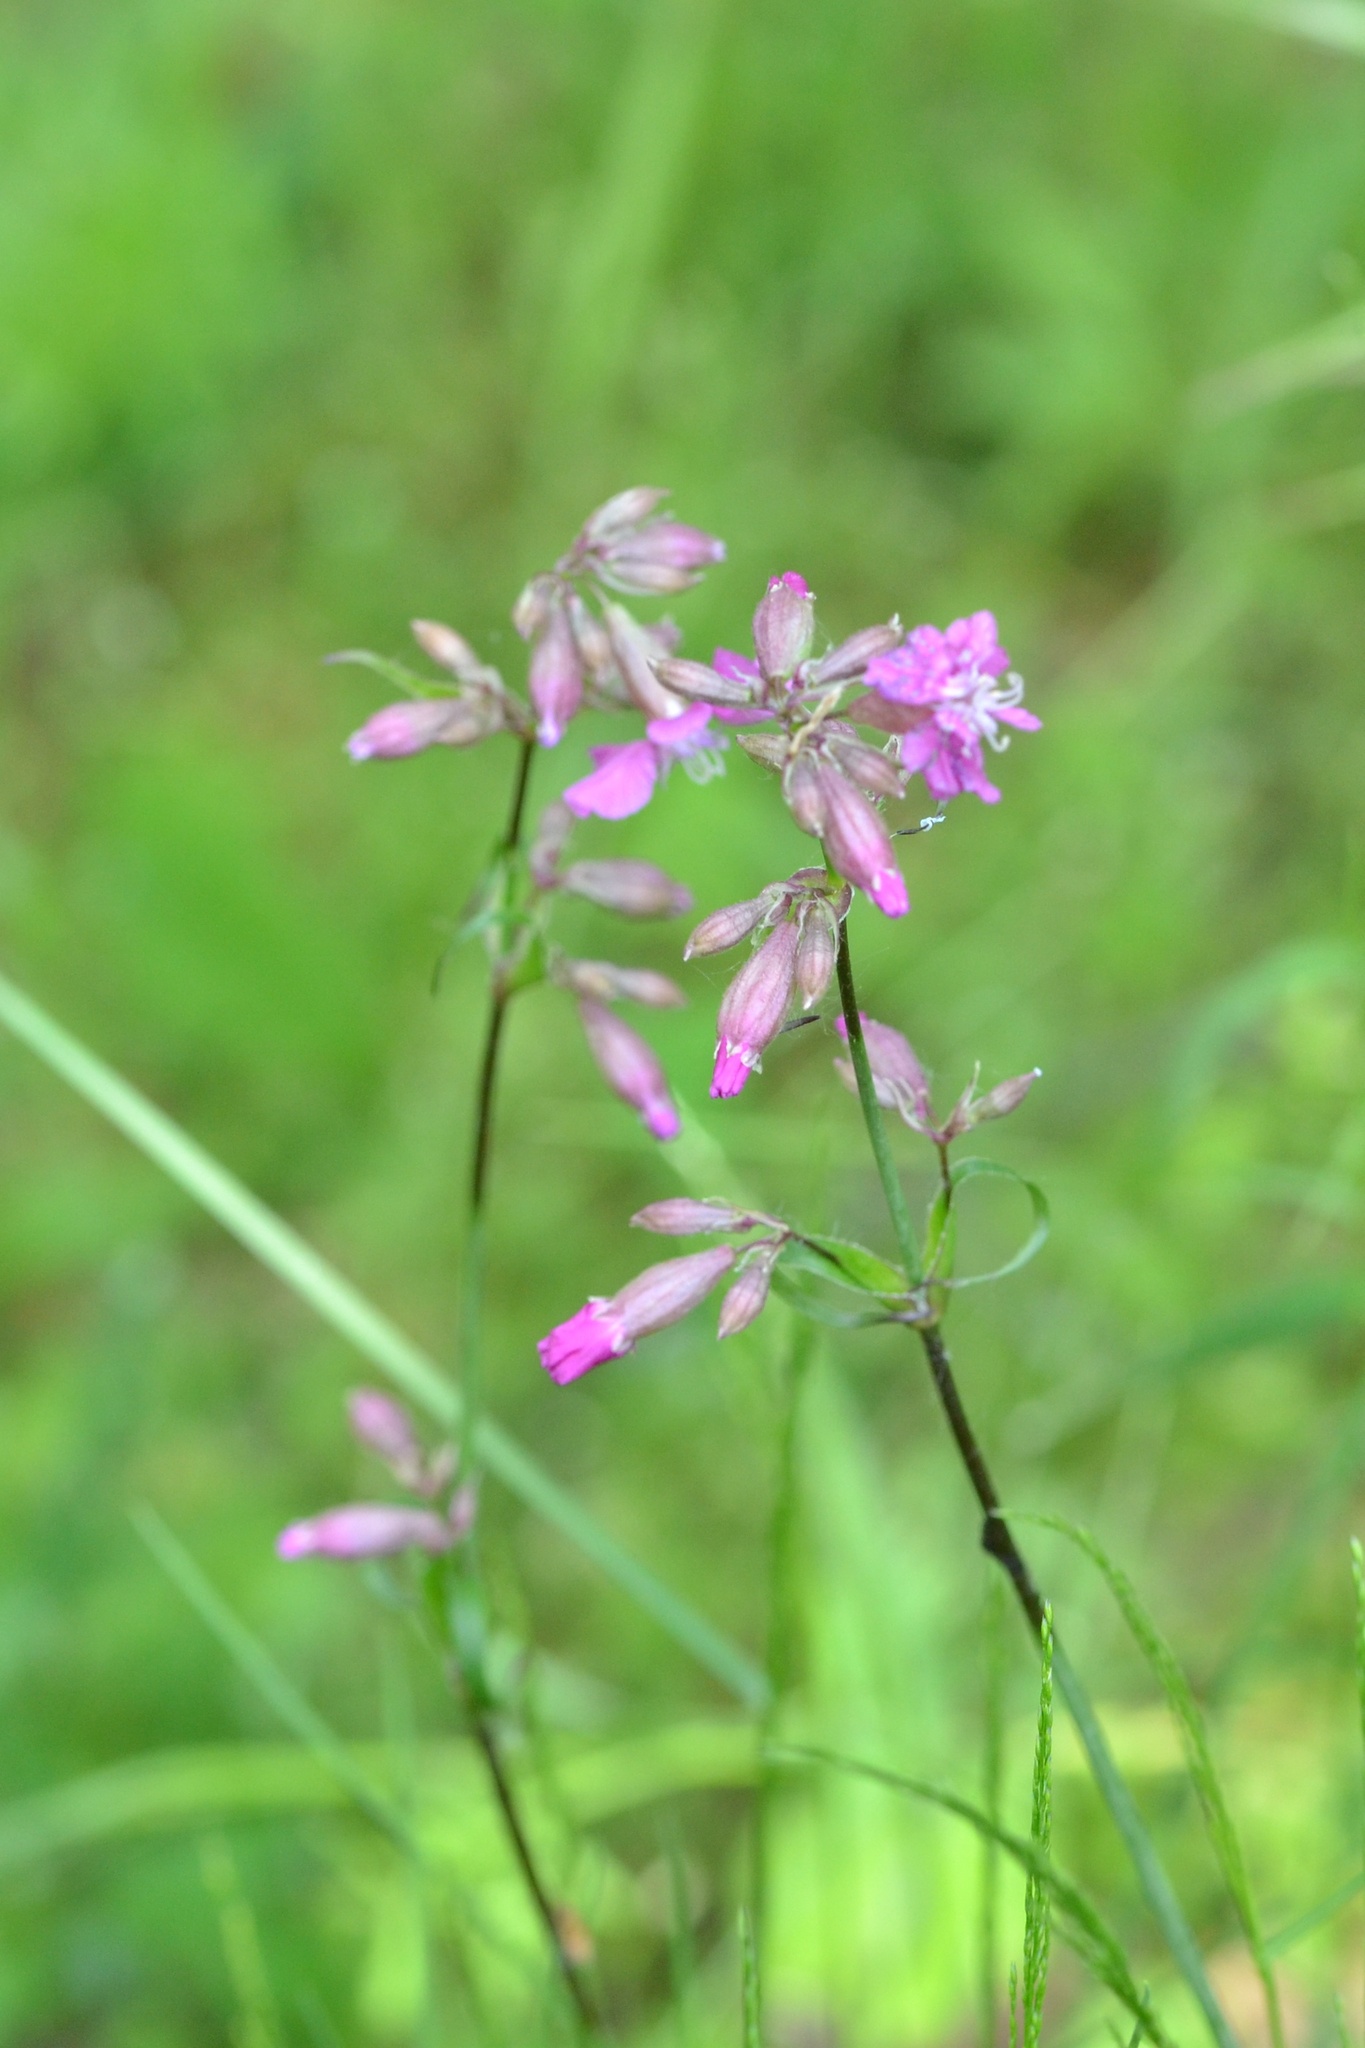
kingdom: Plantae
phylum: Tracheophyta
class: Magnoliopsida
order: Caryophyllales
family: Caryophyllaceae
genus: Viscaria
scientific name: Viscaria vulgaris
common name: Clammy campion
